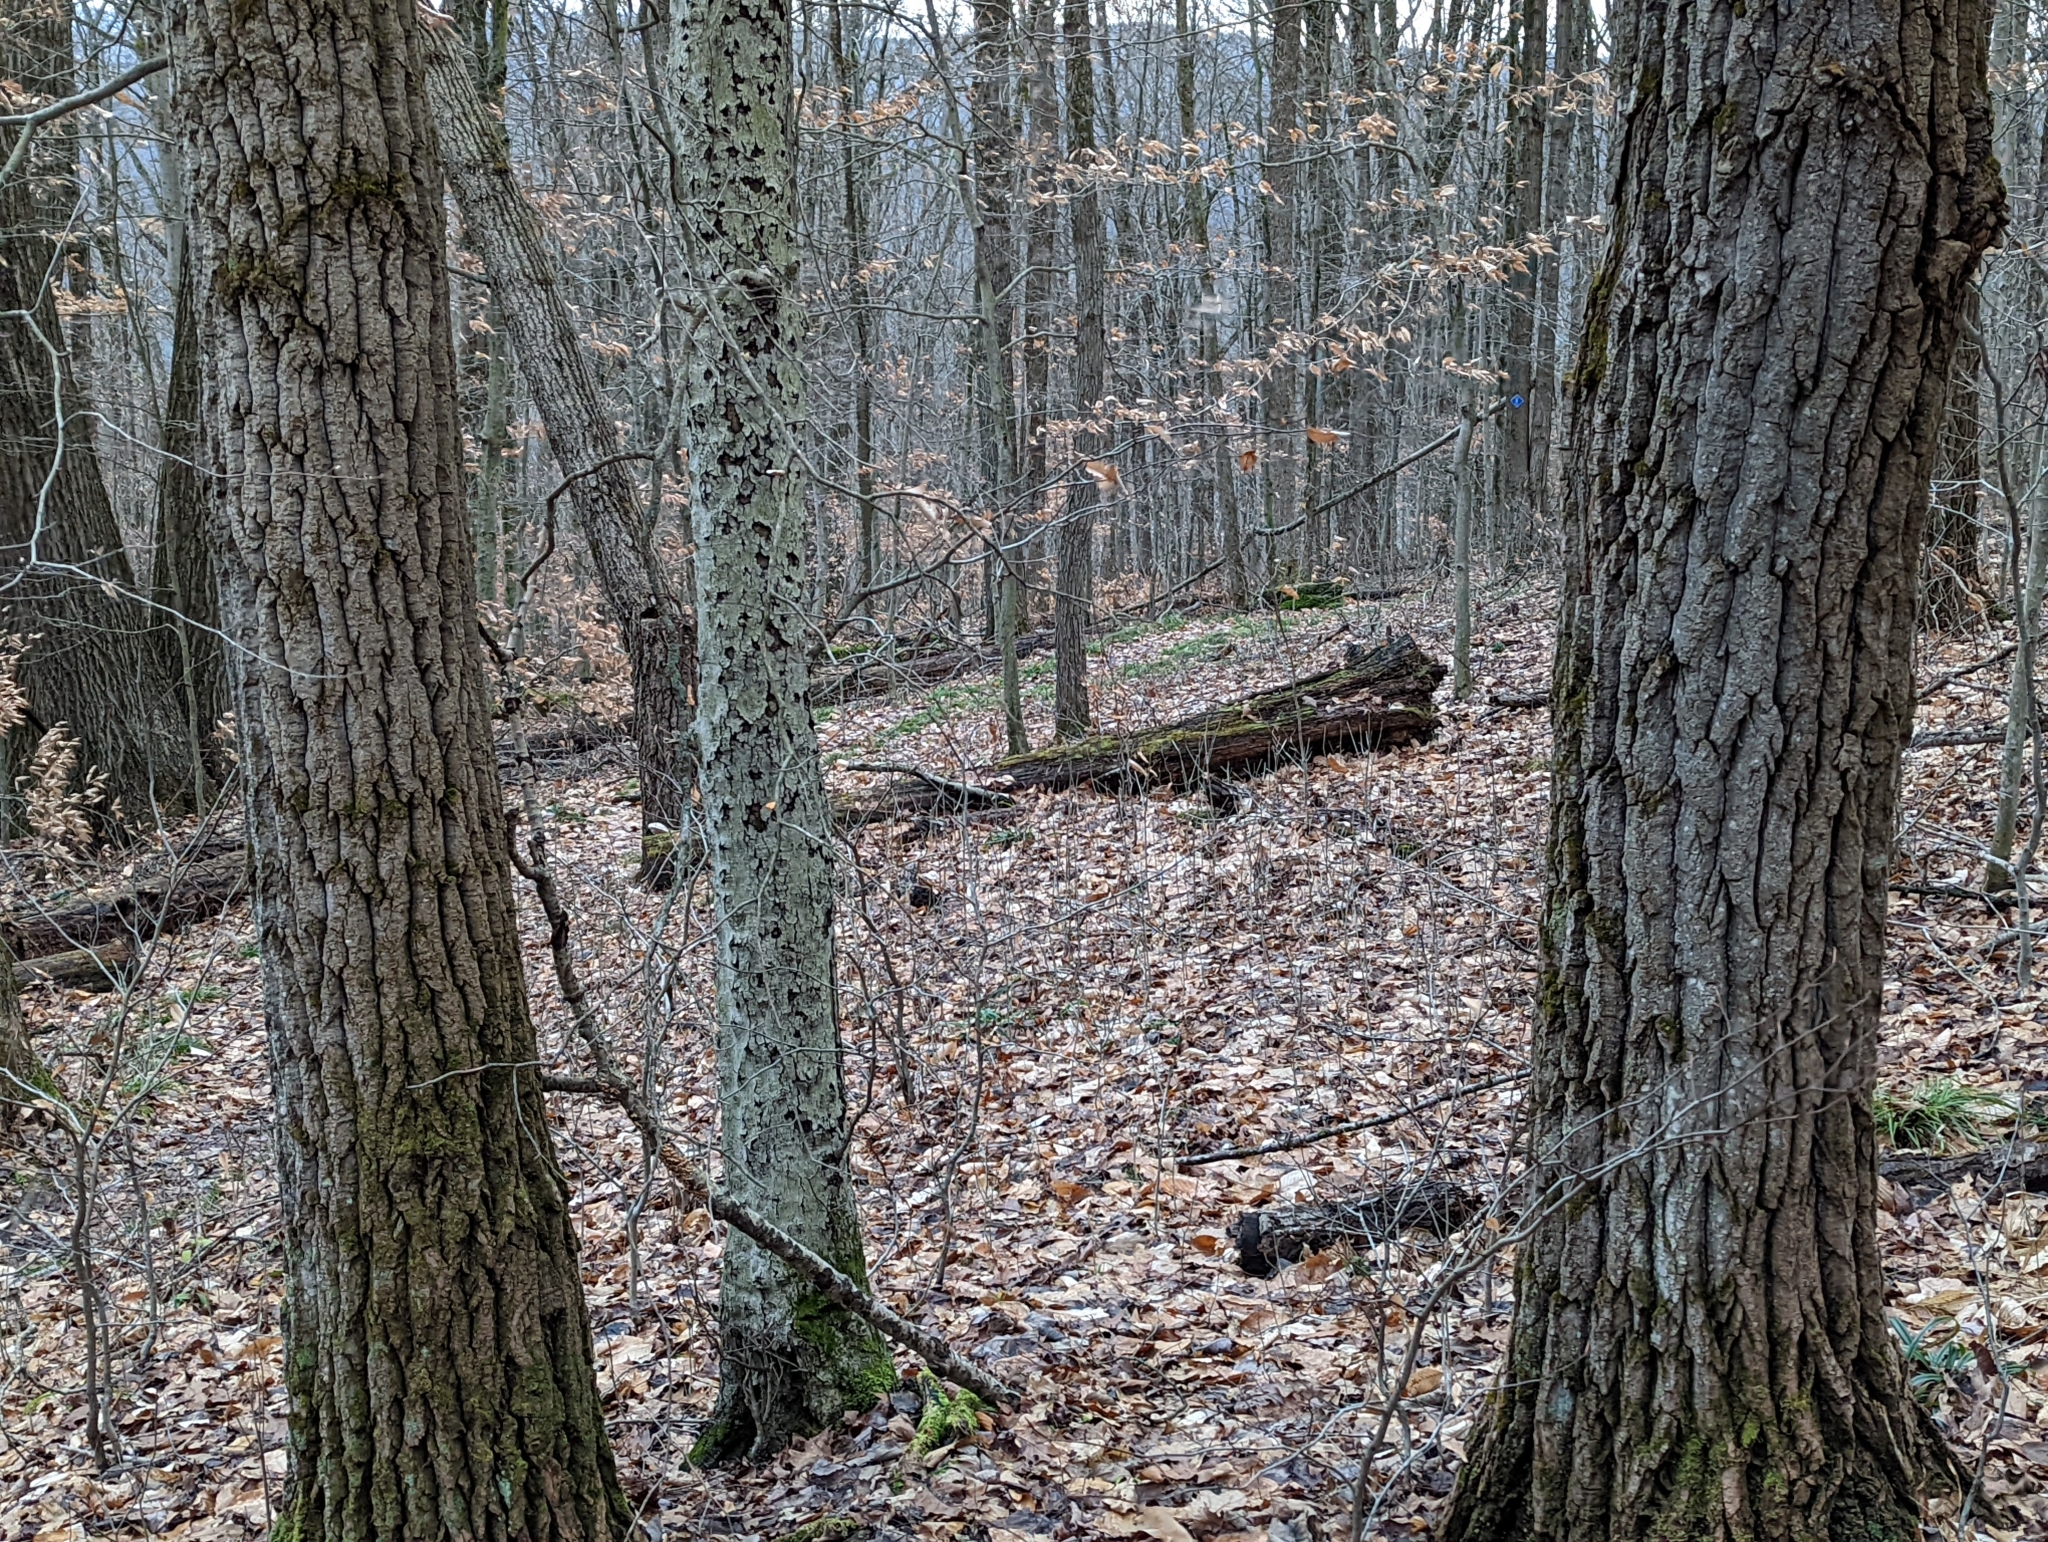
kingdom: Plantae
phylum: Tracheophyta
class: Magnoliopsida
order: Malpighiales
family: Salicaceae
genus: Populus
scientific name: Populus grandidentata
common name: Bigtooth aspen
